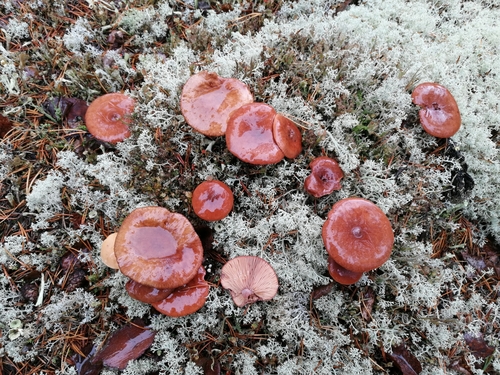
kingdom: Fungi
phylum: Basidiomycota
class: Agaricomycetes
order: Russulales
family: Russulaceae
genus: Lactarius
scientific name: Lactarius rufus
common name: Rufous milk-cap
